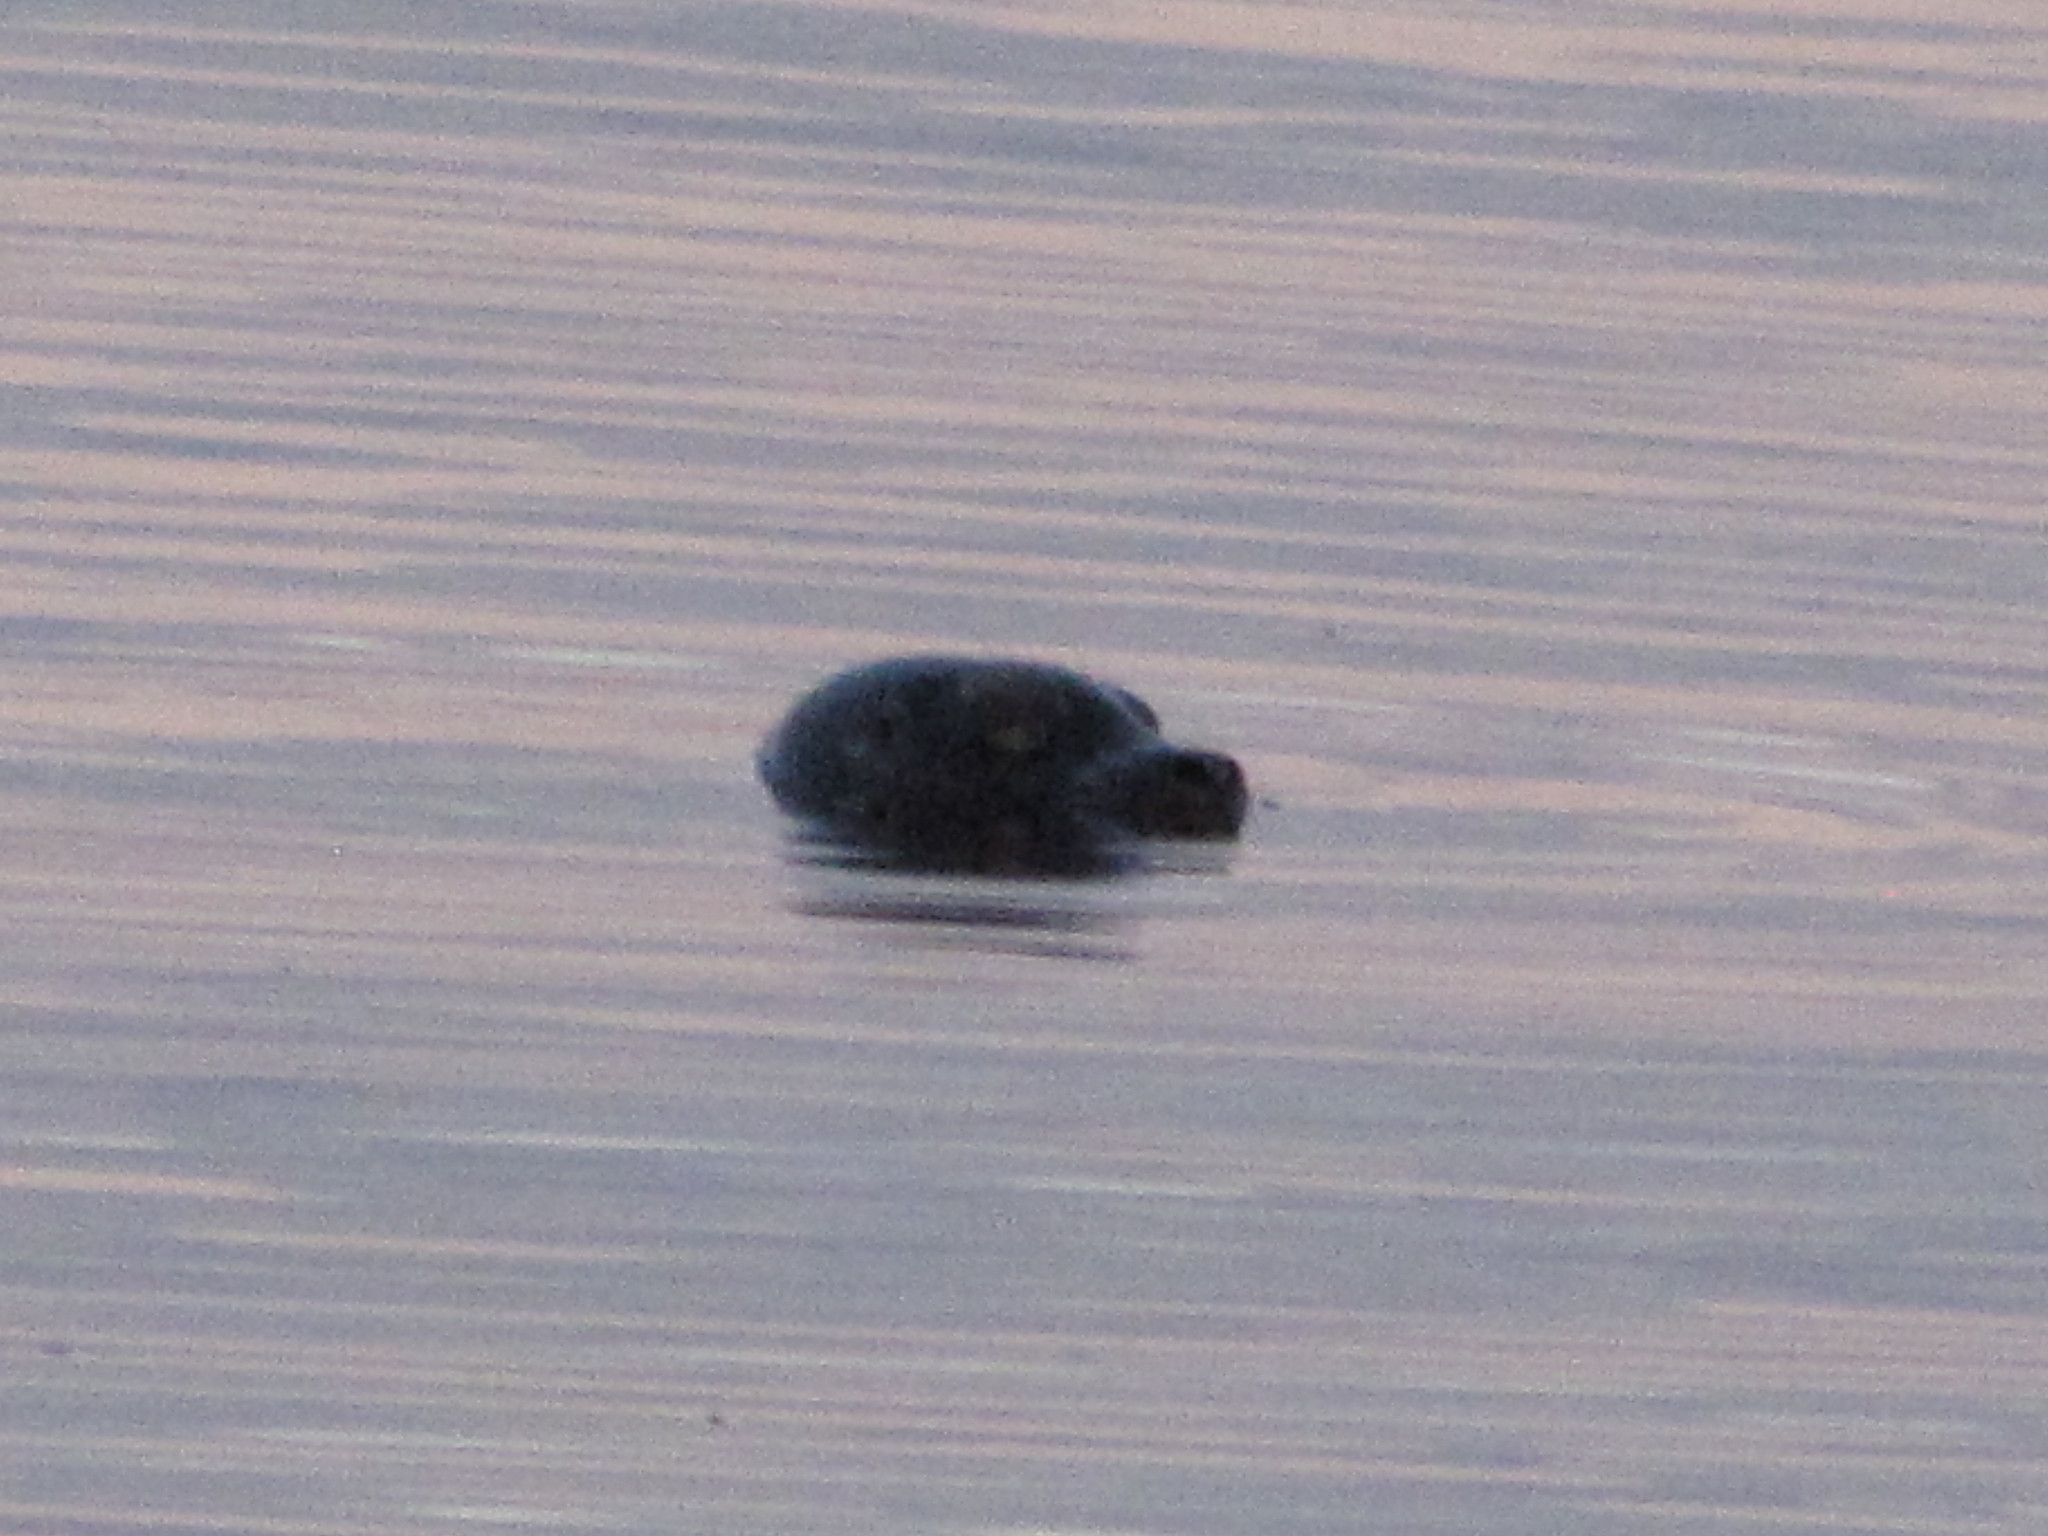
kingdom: Animalia
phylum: Chordata
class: Mammalia
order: Carnivora
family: Phocidae
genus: Phoca
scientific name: Phoca vitulina
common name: Harbor seal
